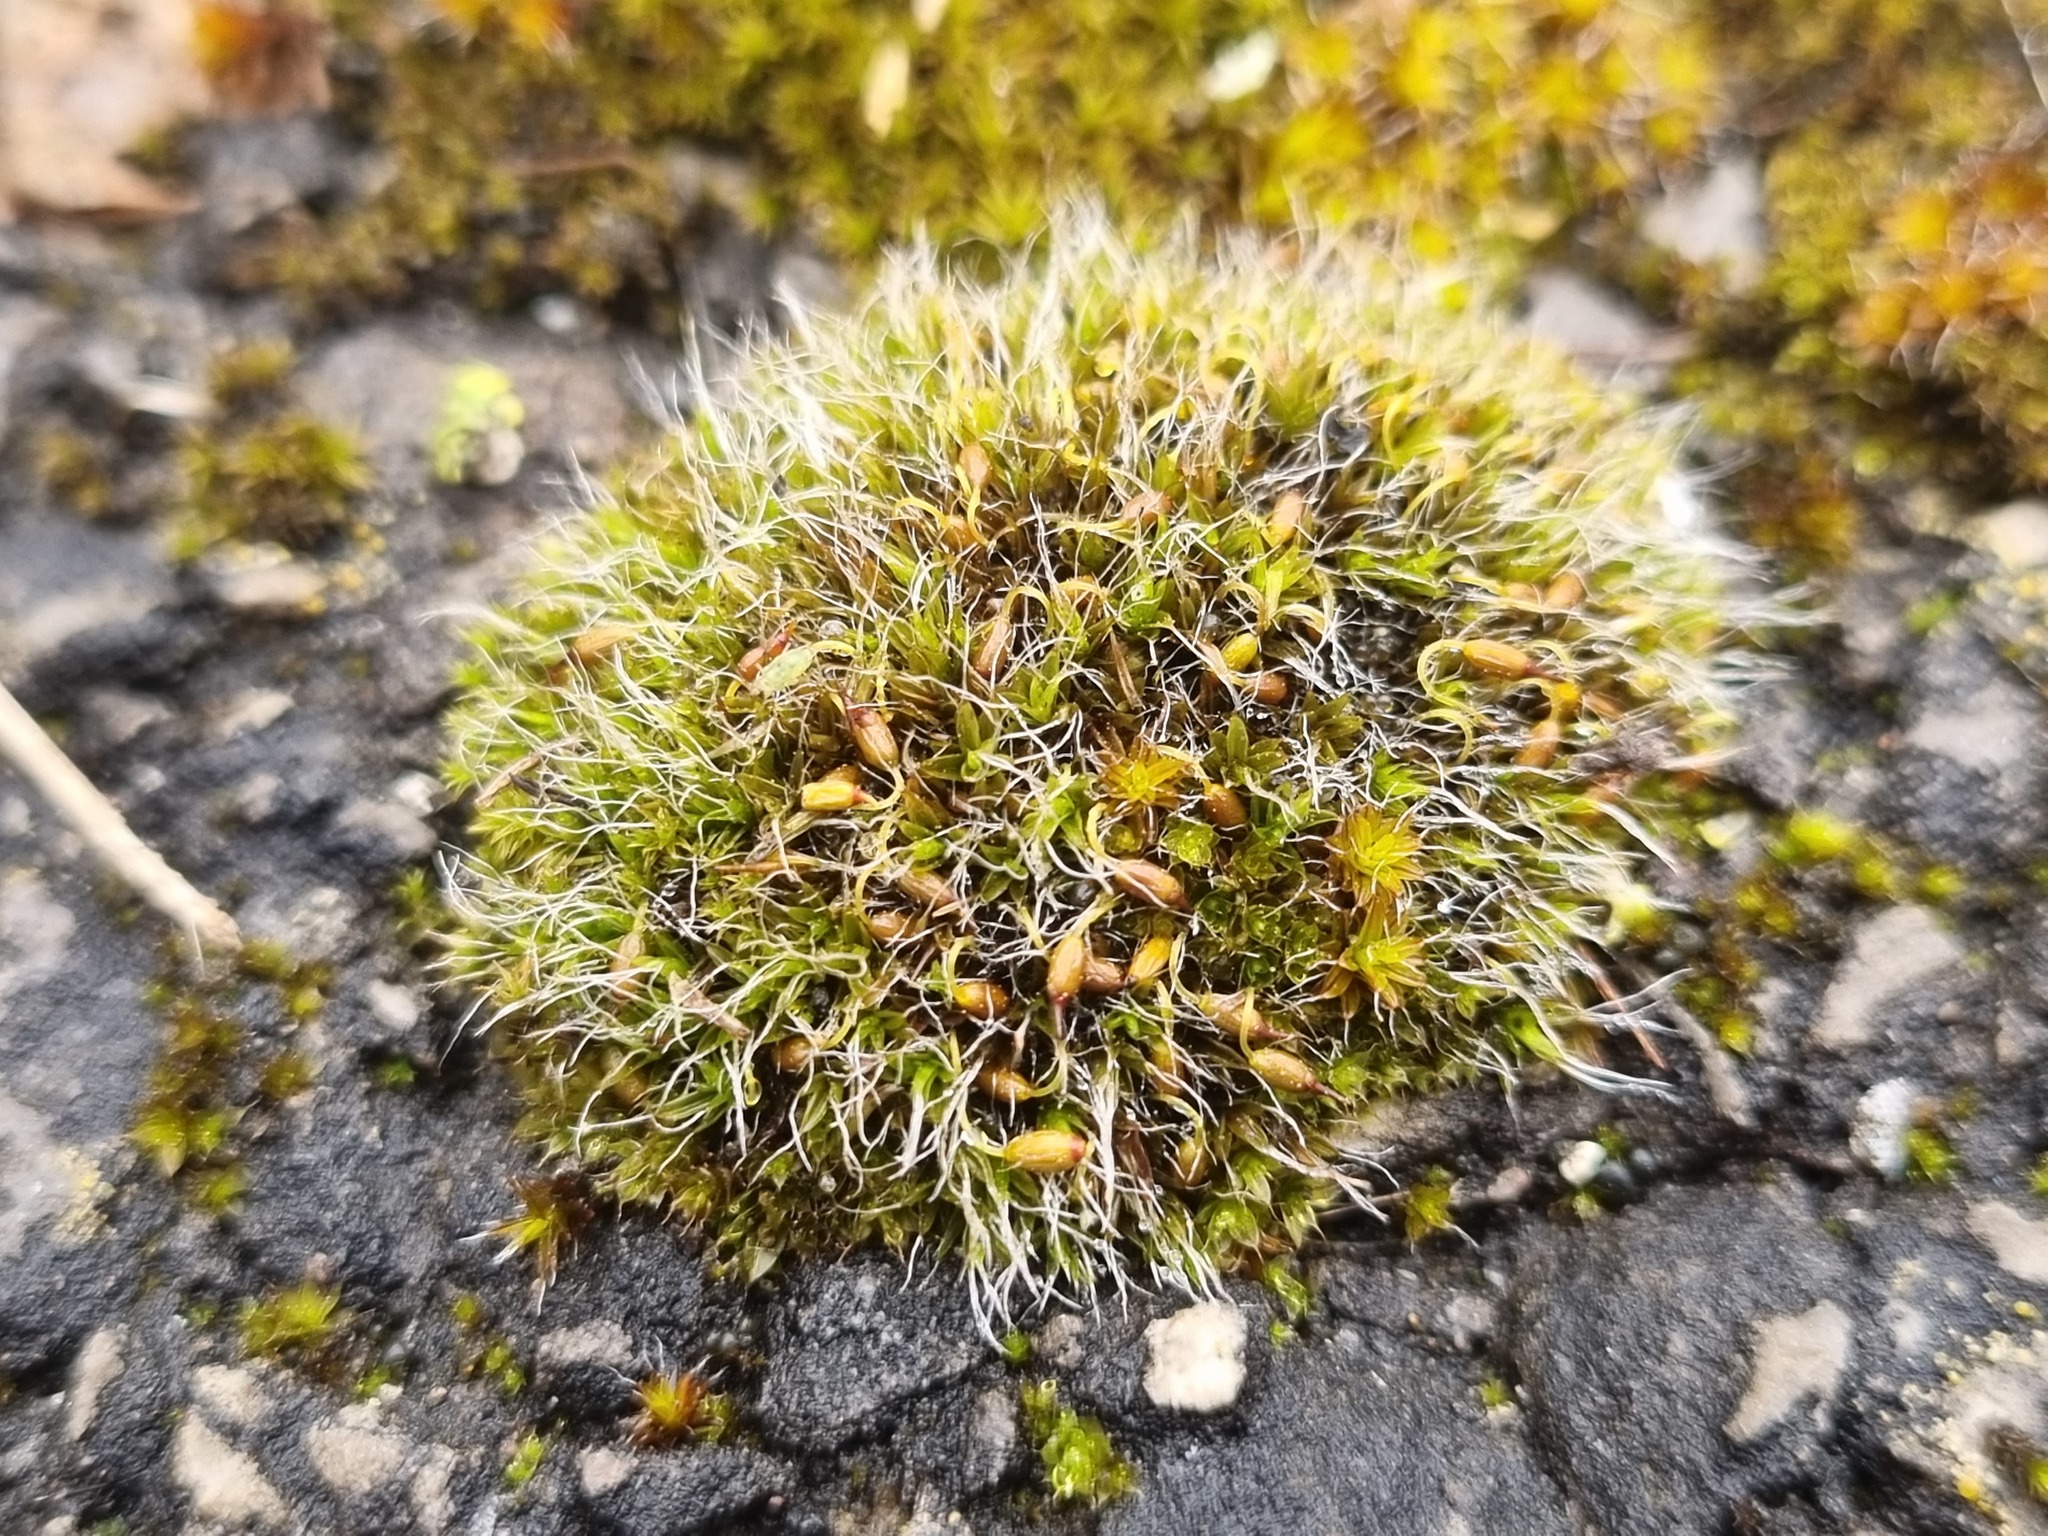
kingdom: Plantae
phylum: Bryophyta
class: Bryopsida
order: Grimmiales
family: Grimmiaceae
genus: Grimmia
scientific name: Grimmia pulvinata
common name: Grey-cushioned grimmia
